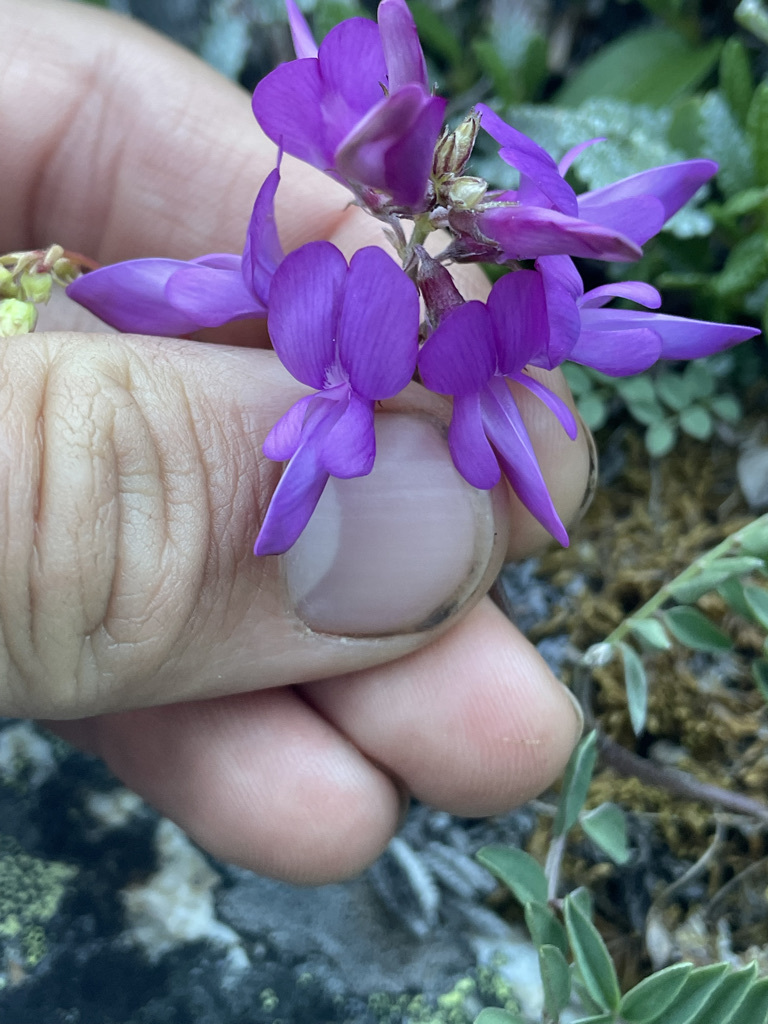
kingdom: Plantae
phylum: Tracheophyta
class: Magnoliopsida
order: Fabales
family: Fabaceae
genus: Hedysarum
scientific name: Hedysarum boreale
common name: Northern sweet-vetch
